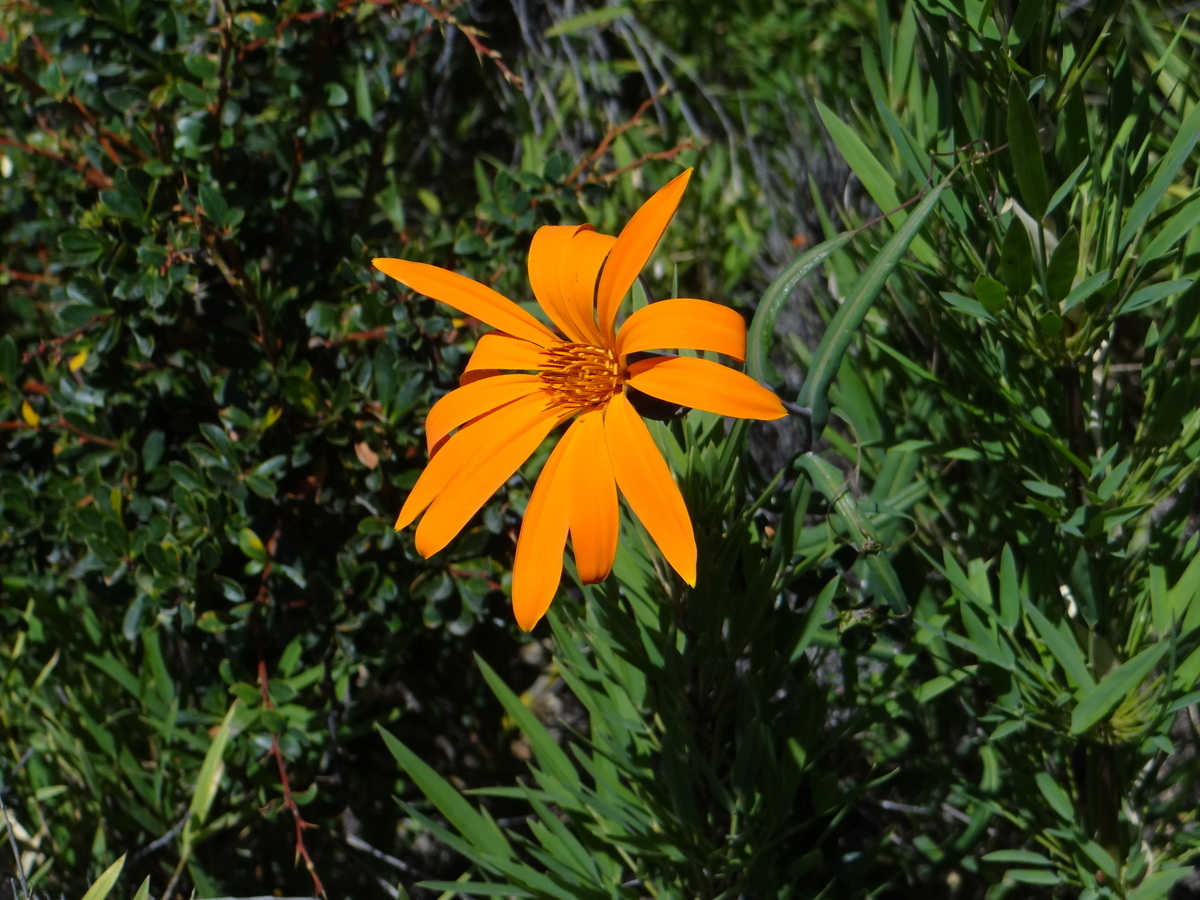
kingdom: Plantae
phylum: Tracheophyta
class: Magnoliopsida
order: Asterales
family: Asteraceae
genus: Mutisia
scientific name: Mutisia decurrens
